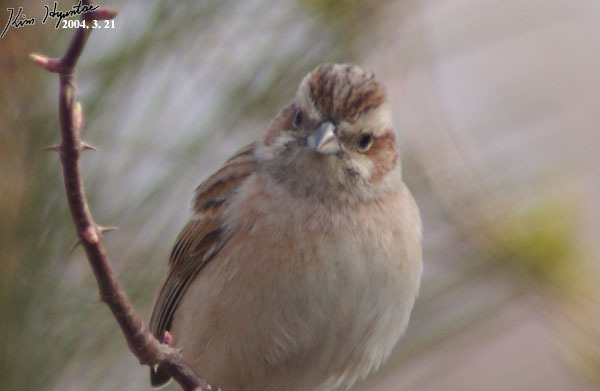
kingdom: Animalia
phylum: Chordata
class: Aves
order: Passeriformes
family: Emberizidae
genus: Emberiza
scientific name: Emberiza cioides
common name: Meadow bunting
